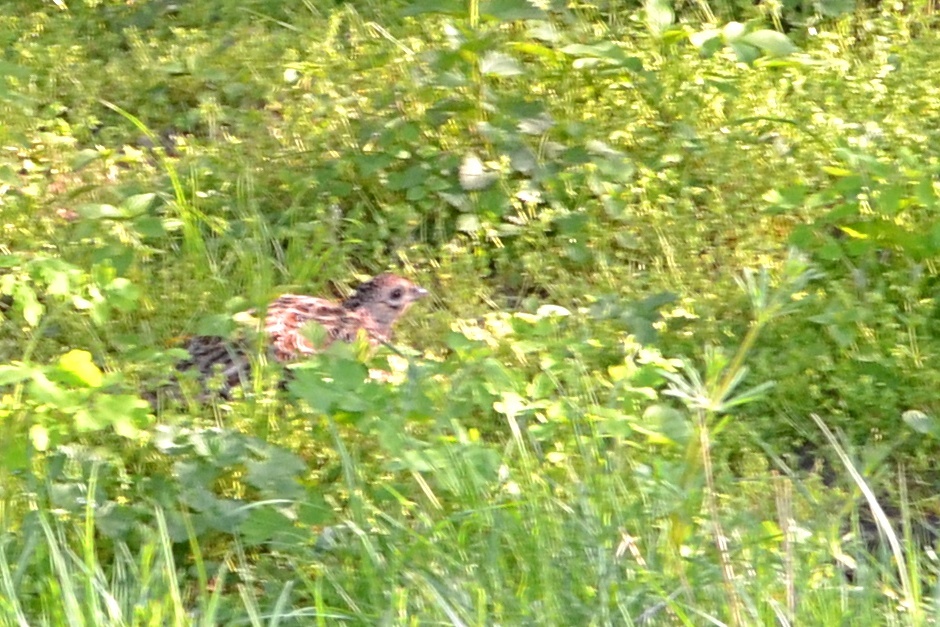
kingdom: Animalia
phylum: Chordata
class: Aves
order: Galliformes
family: Phasianidae
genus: Perdix
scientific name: Perdix perdix
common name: Grey partridge
